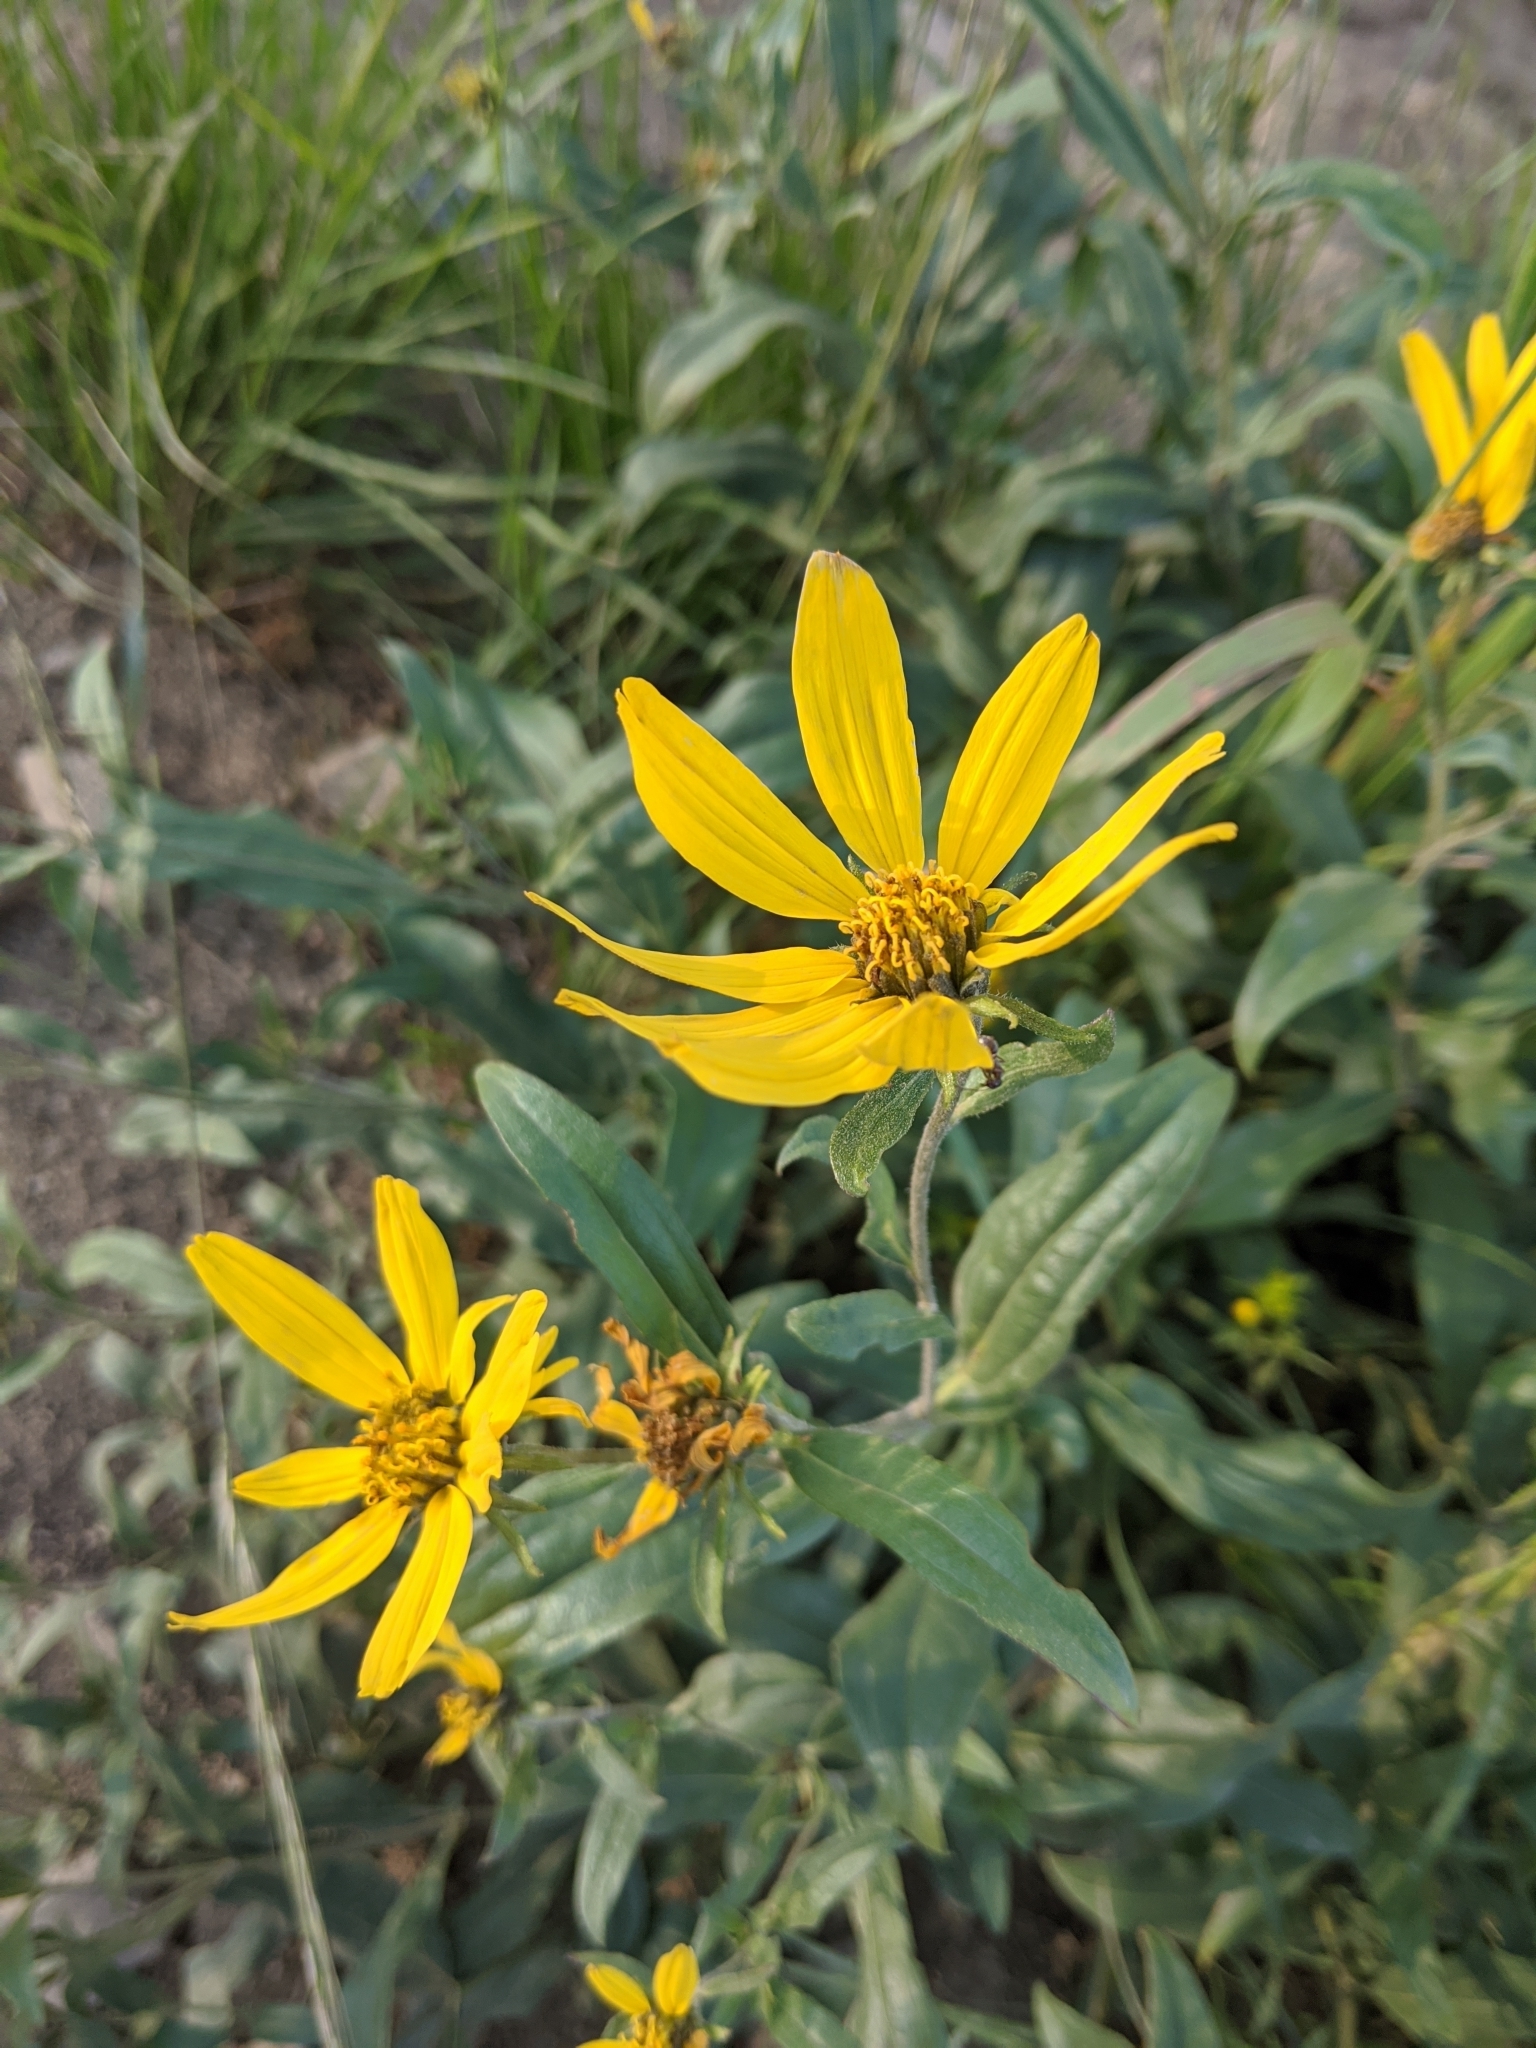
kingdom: Plantae
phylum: Tracheophyta
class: Magnoliopsida
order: Asterales
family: Asteraceae
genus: Heliomeris
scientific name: Heliomeris multiflora
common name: Showy goldeneye
